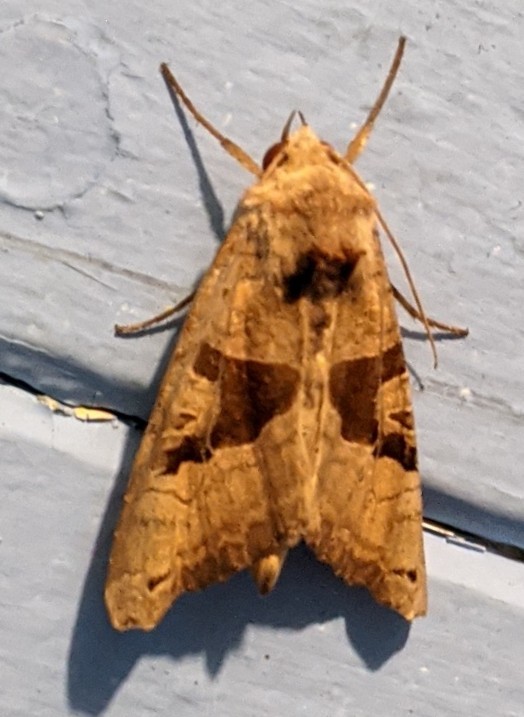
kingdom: Animalia
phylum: Arthropoda
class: Insecta
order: Lepidoptera
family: Noctuidae
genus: Phlogophora
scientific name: Phlogophora periculosa
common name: Brown angle shades
